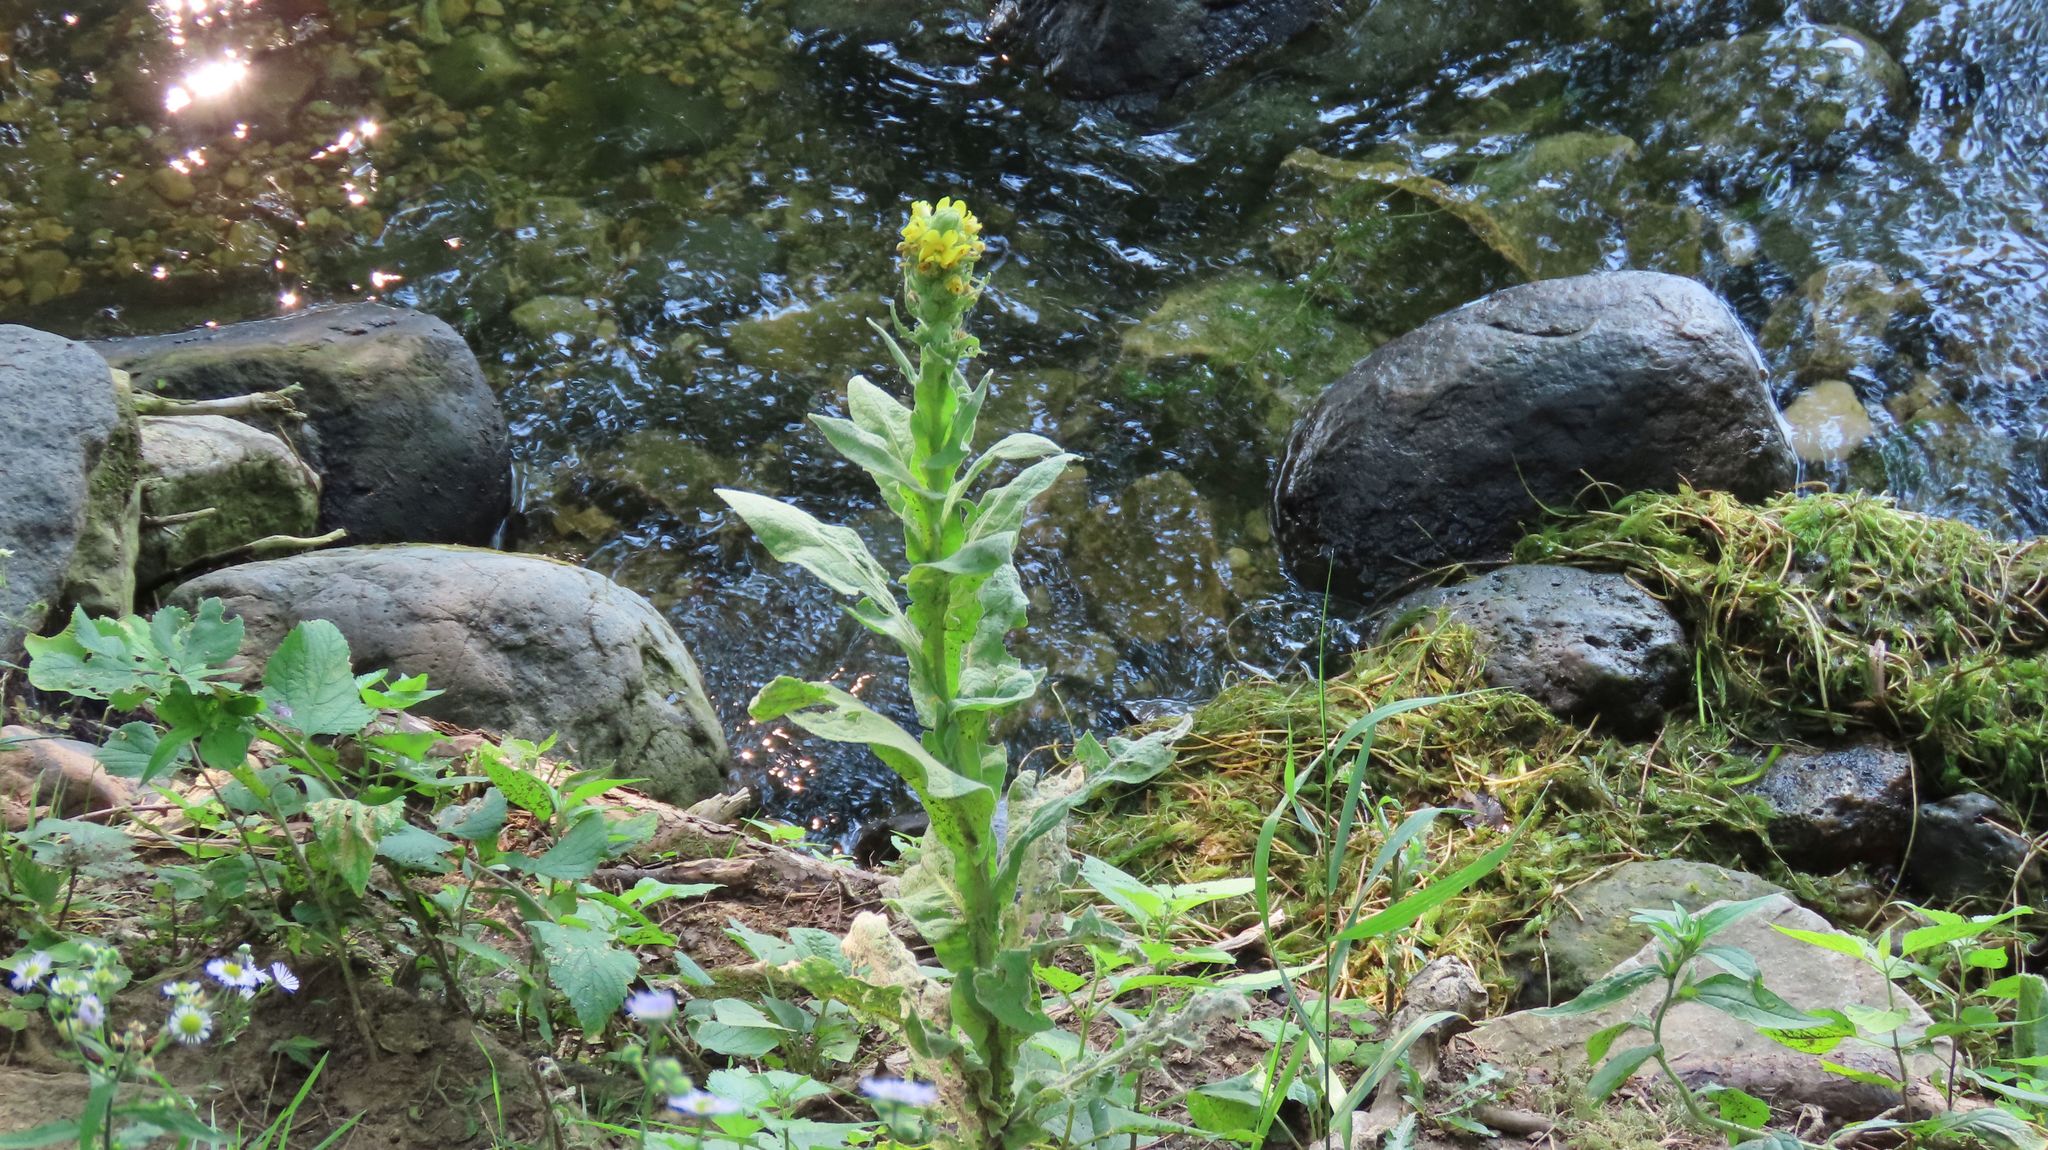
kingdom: Plantae
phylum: Tracheophyta
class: Magnoliopsida
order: Lamiales
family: Scrophulariaceae
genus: Verbascum
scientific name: Verbascum thapsus
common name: Common mullein
